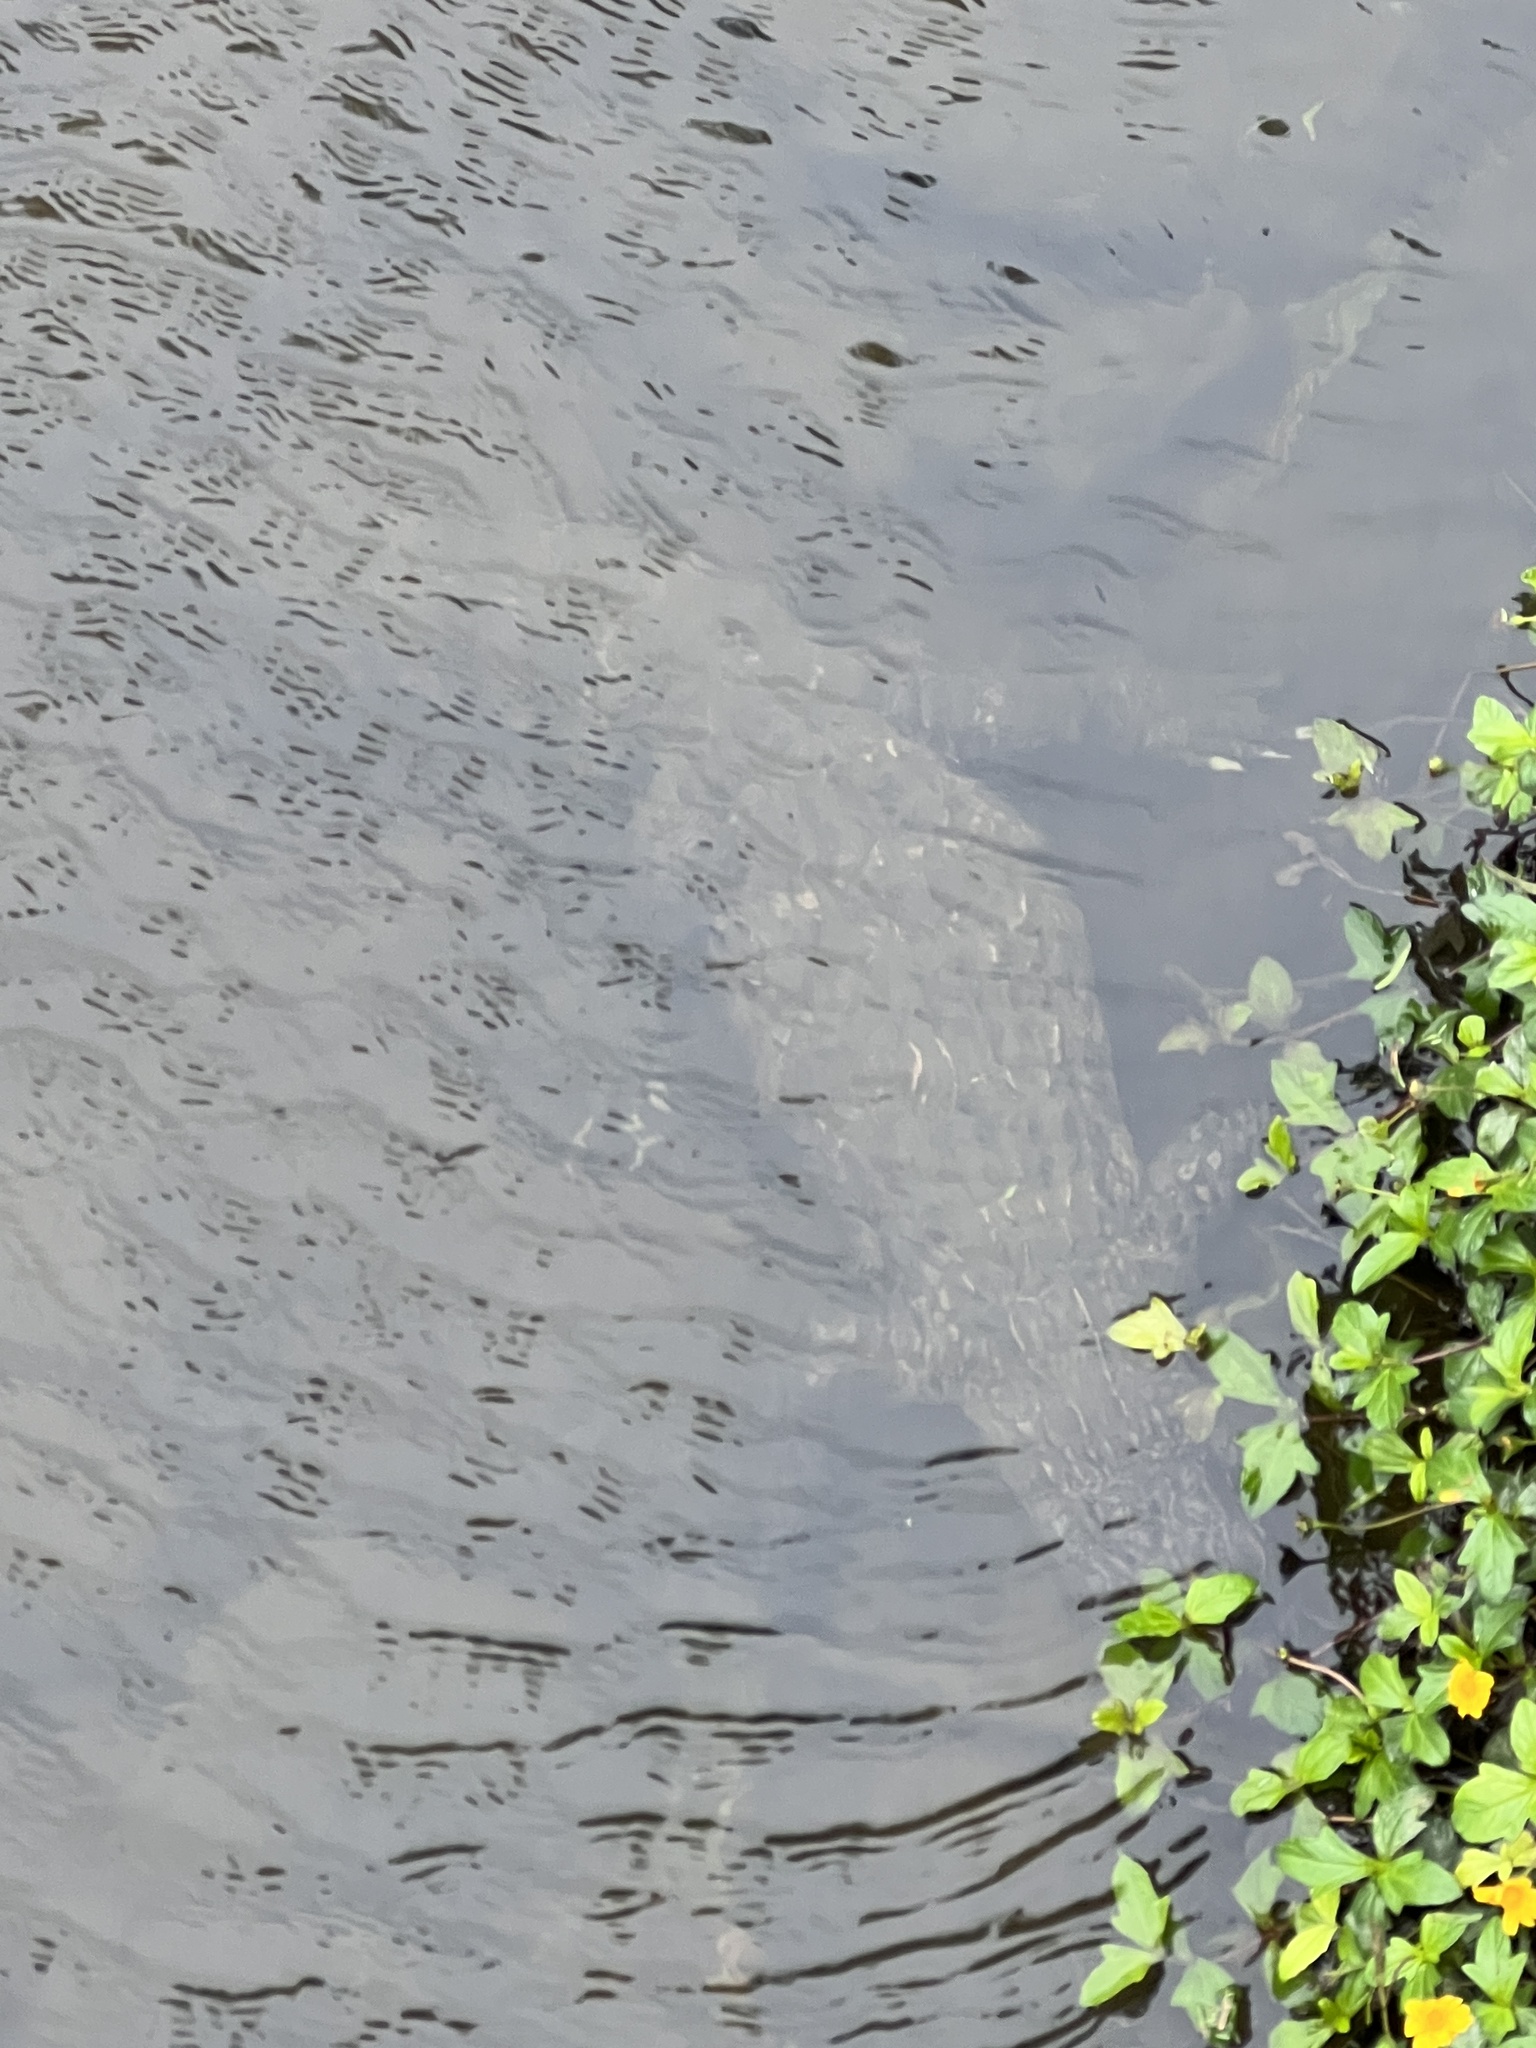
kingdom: Animalia
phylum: Chordata
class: Crocodylia
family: Alligatoridae
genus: Alligator
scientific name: Alligator mississippiensis
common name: American alligator
